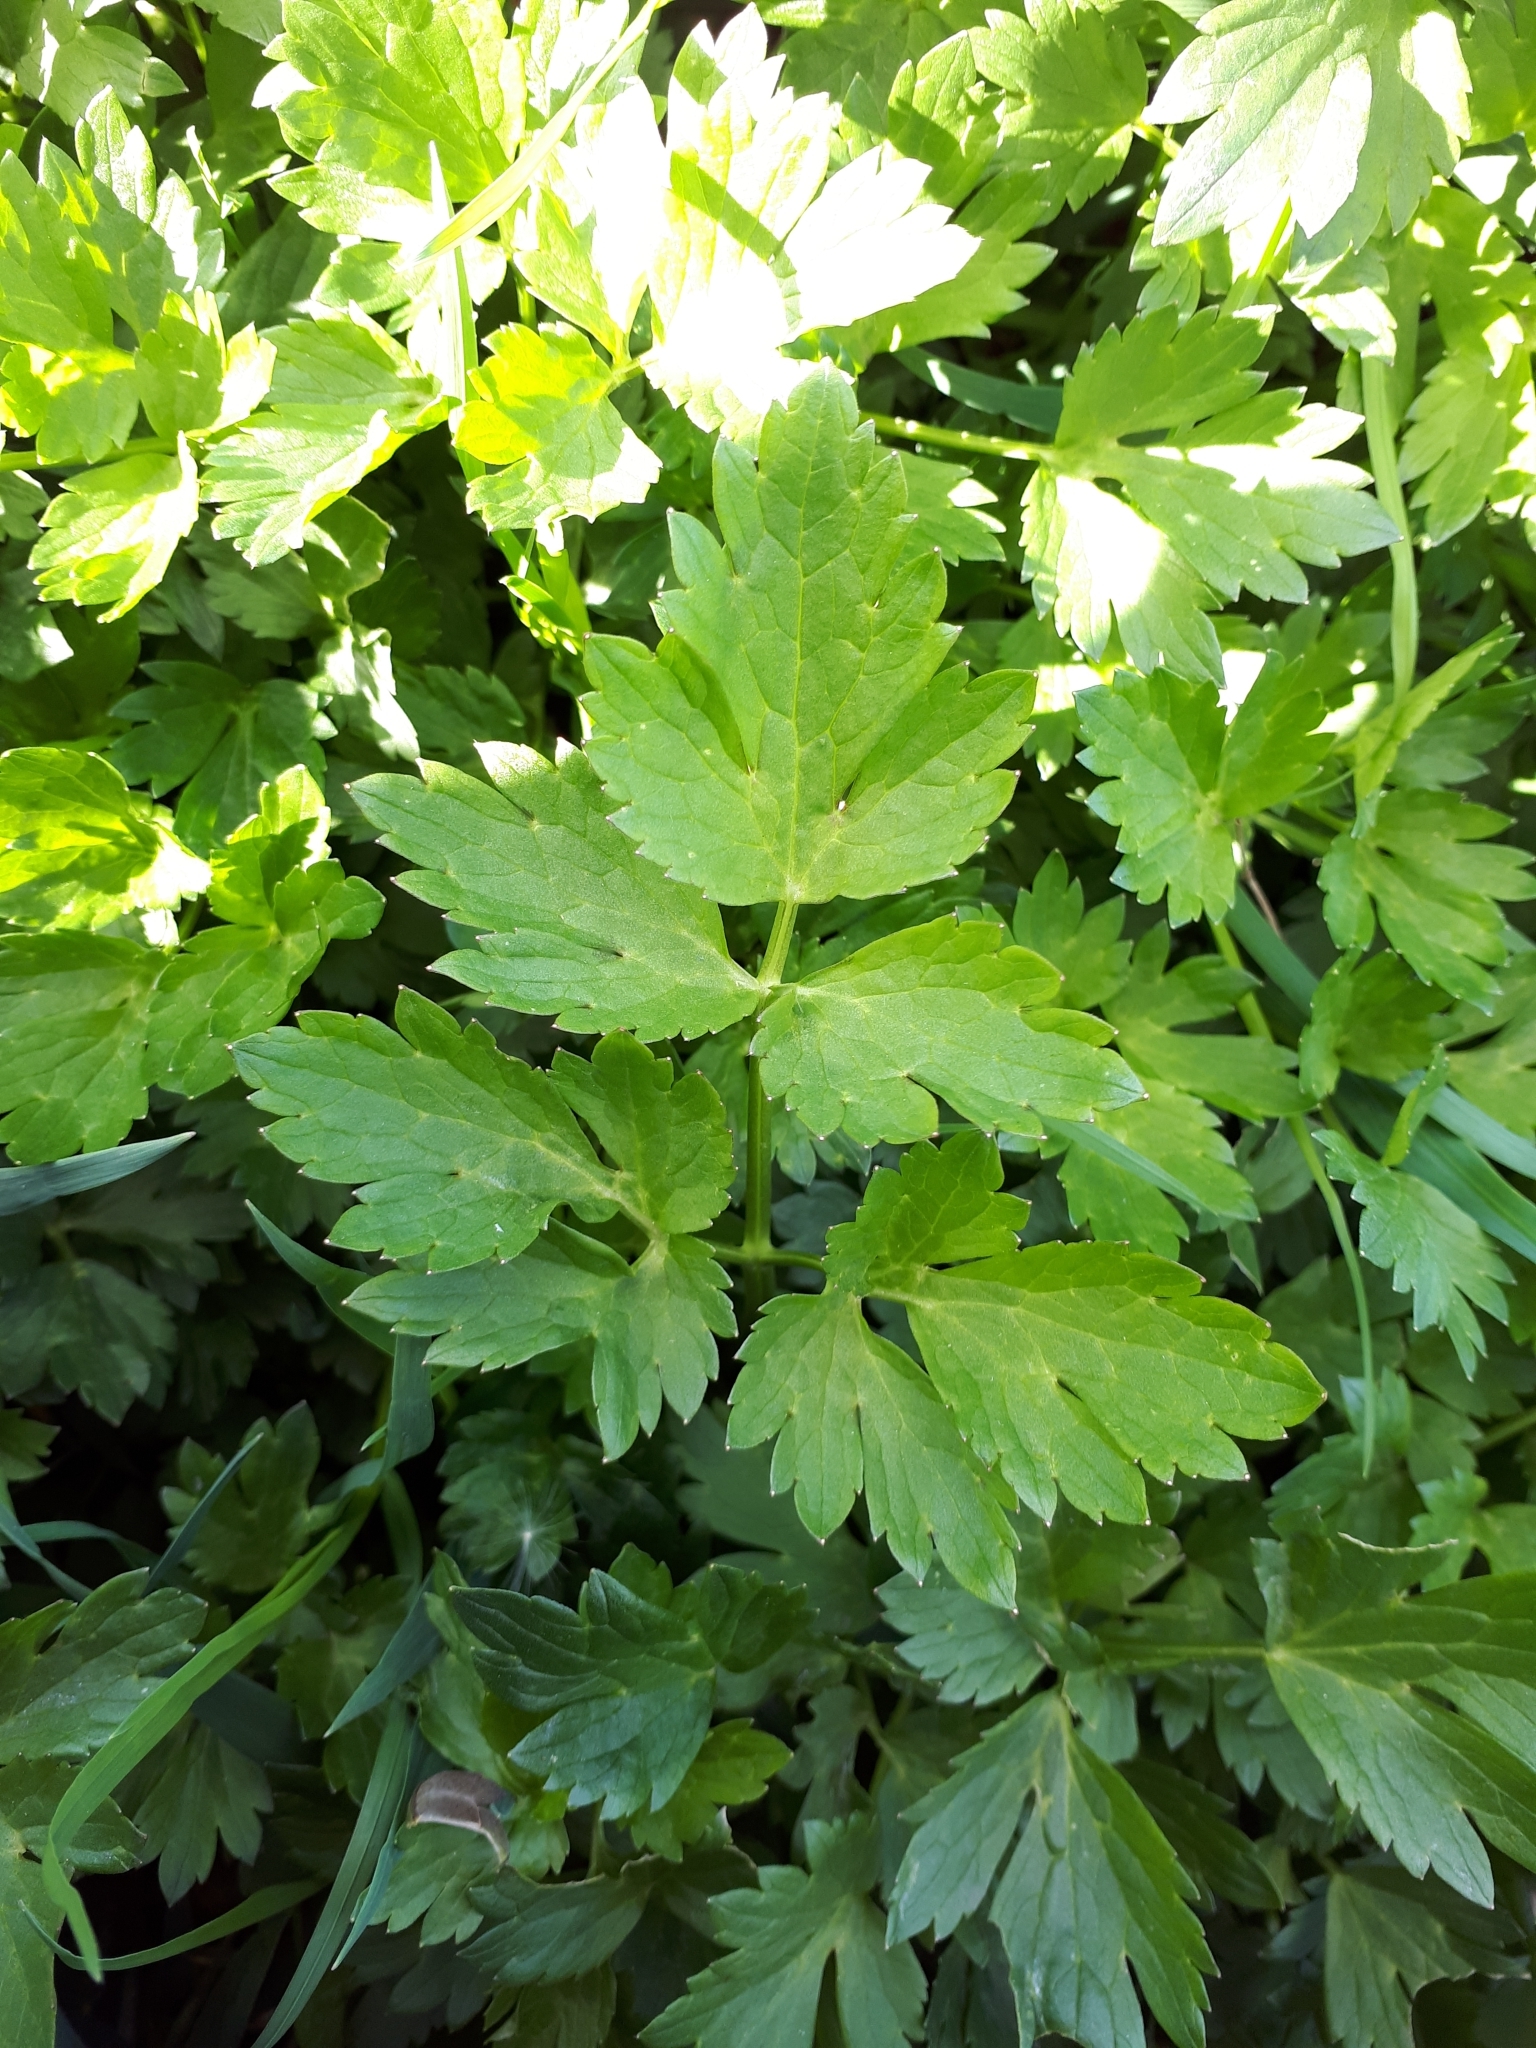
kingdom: Plantae
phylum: Tracheophyta
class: Magnoliopsida
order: Ranunculales
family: Ranunculaceae
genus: Ranunculus
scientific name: Ranunculus repens
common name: Creeping buttercup
